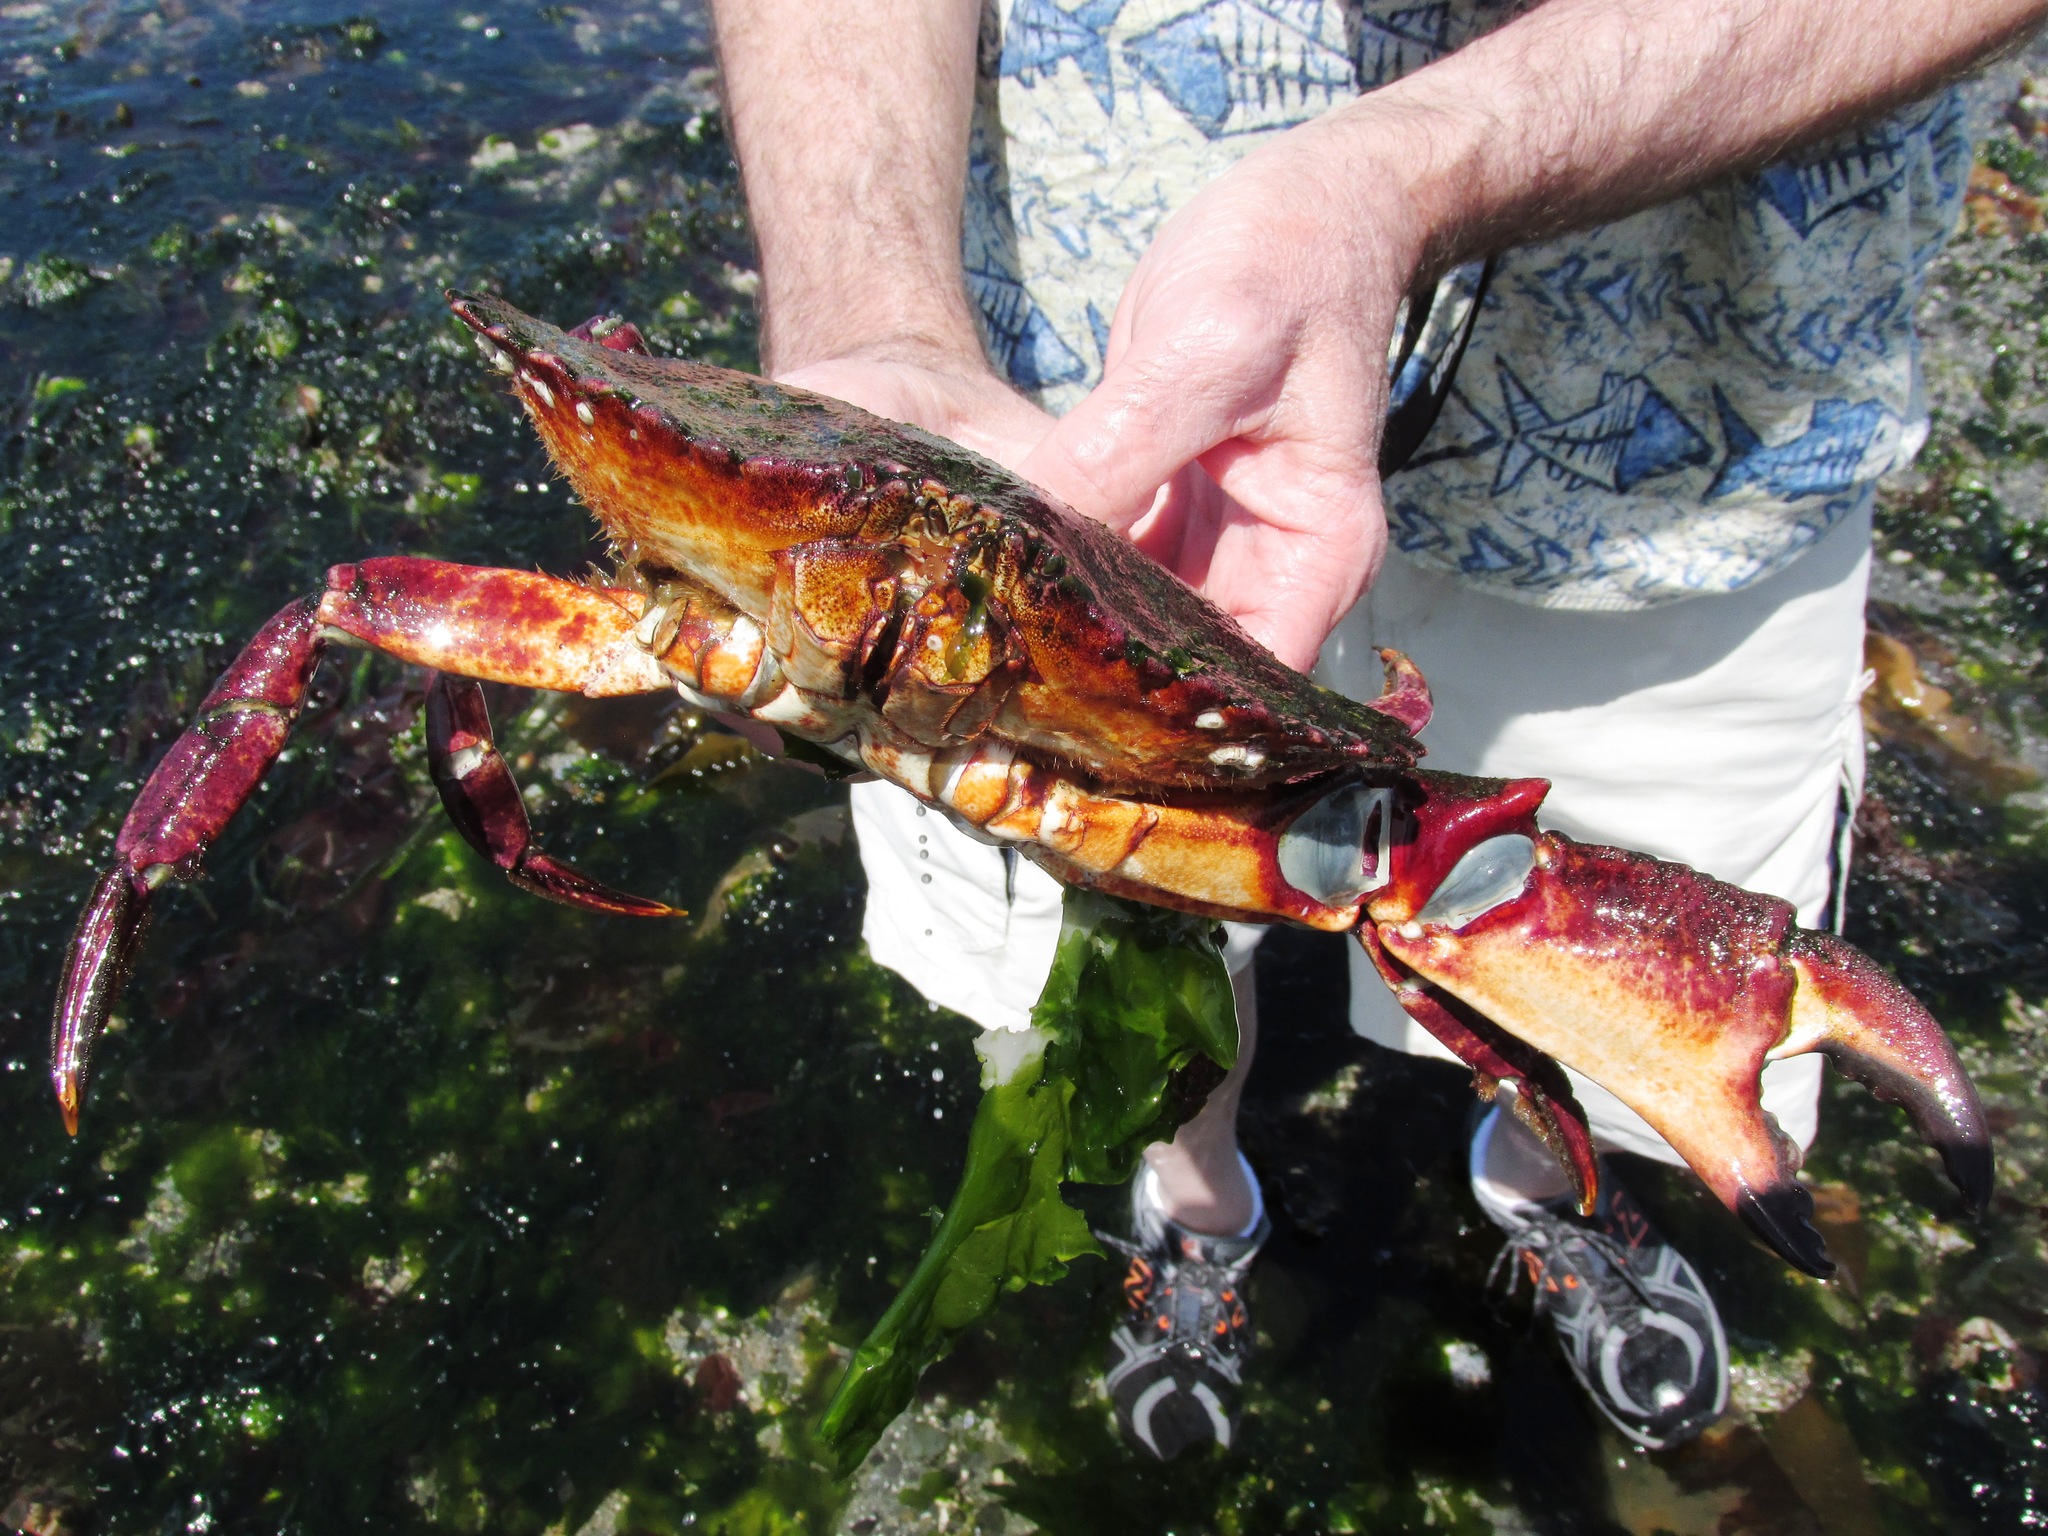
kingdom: Animalia
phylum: Arthropoda
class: Malacostraca
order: Decapoda
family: Cancridae
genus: Cancer
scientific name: Cancer productus
